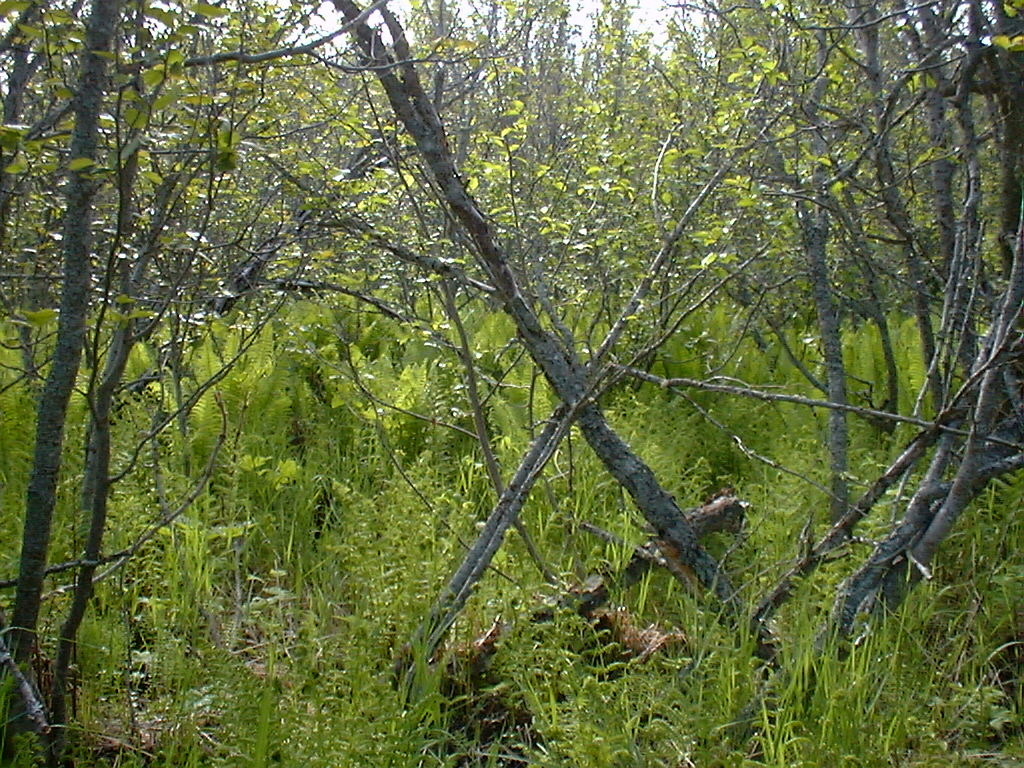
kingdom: Plantae
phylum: Tracheophyta
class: Polypodiopsida
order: Polypodiales
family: Onocleaceae
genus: Matteuccia
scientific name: Matteuccia struthiopteris
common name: Ostrich fern
